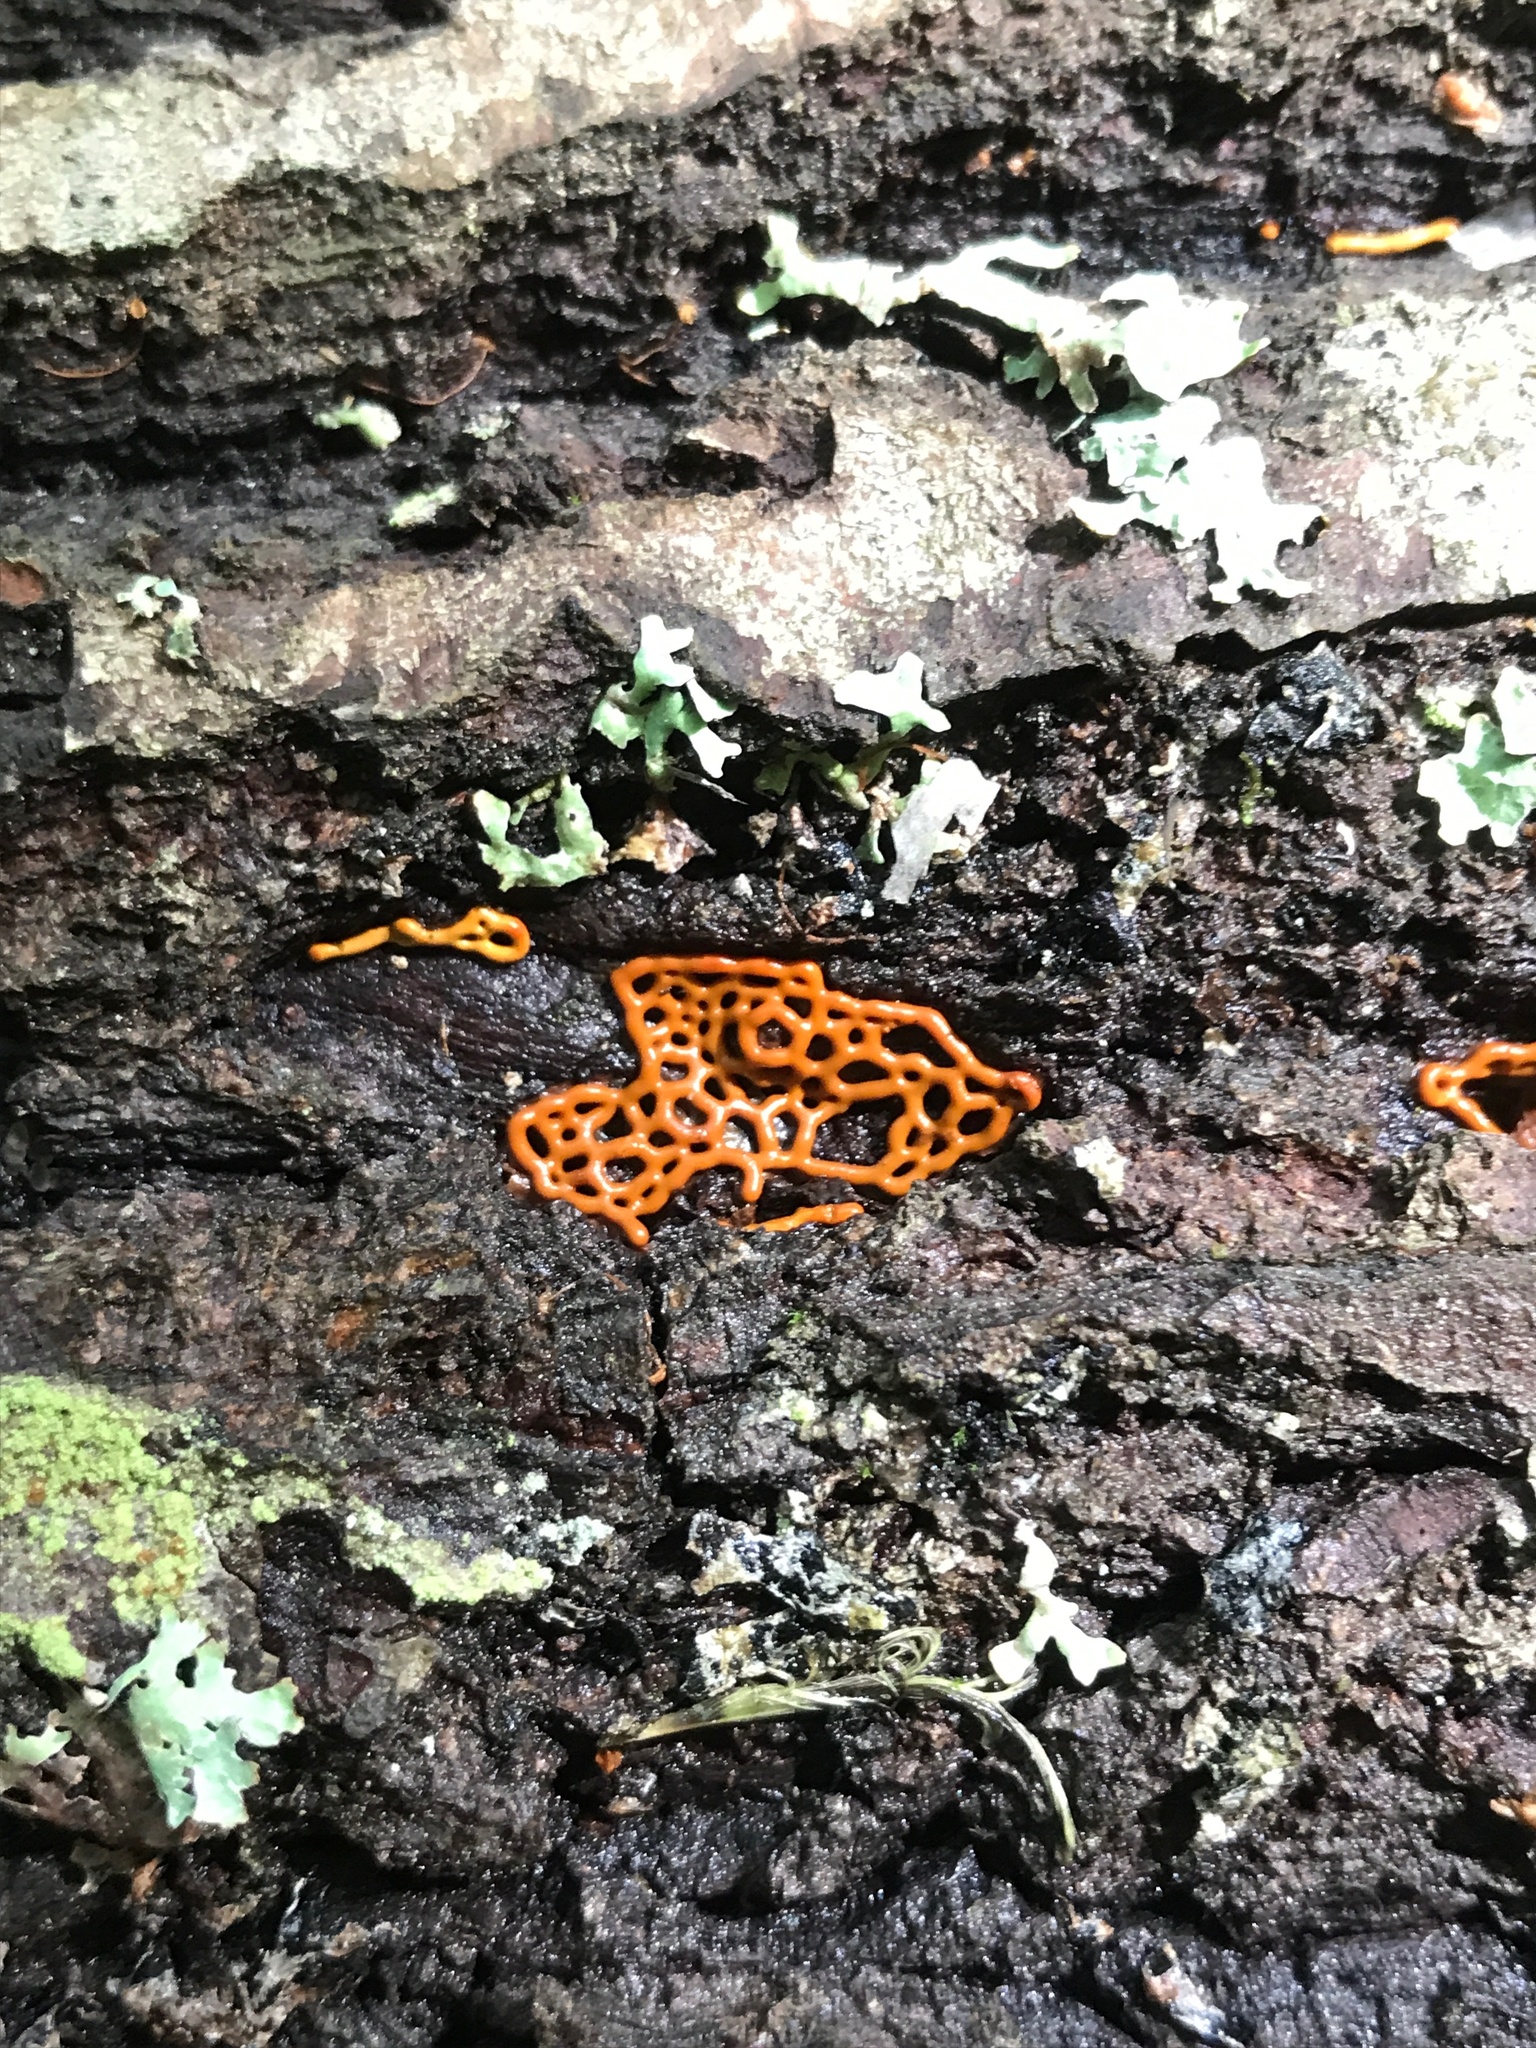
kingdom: Protozoa
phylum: Mycetozoa
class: Myxomycetes
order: Trichiales
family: Arcyriaceae
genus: Hemitrichia
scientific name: Hemitrichia serpula
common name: Pretzel slime mold
